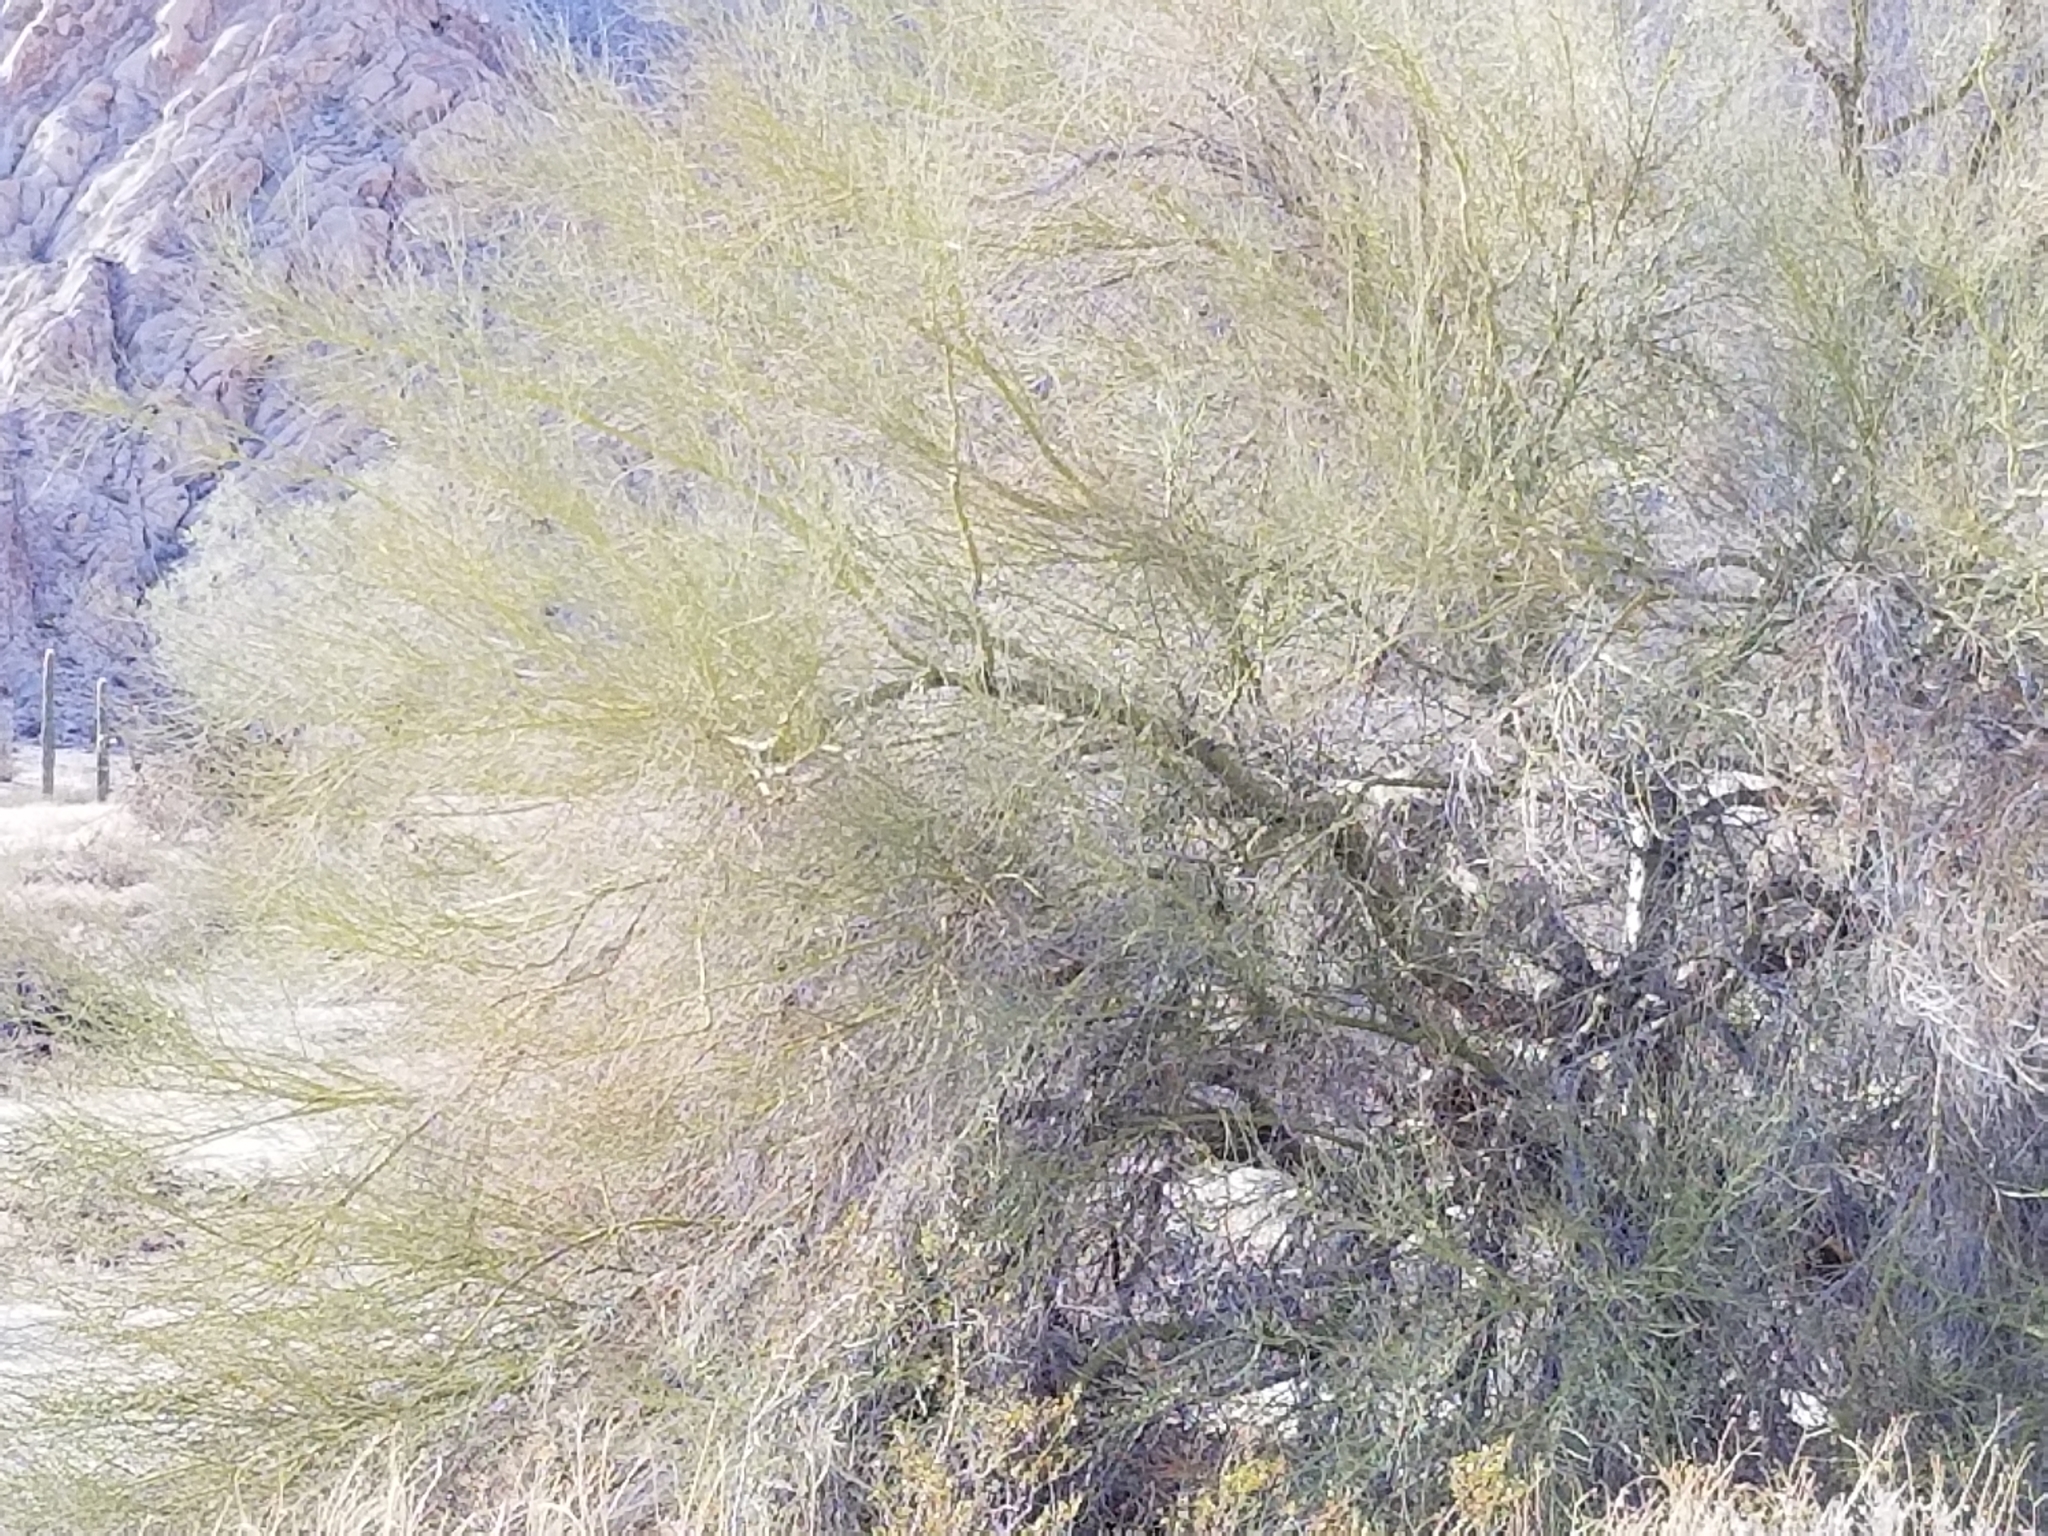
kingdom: Plantae
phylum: Tracheophyta
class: Magnoliopsida
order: Fabales
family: Fabaceae
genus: Parkinsonia
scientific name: Parkinsonia florida
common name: Blue paloverde
